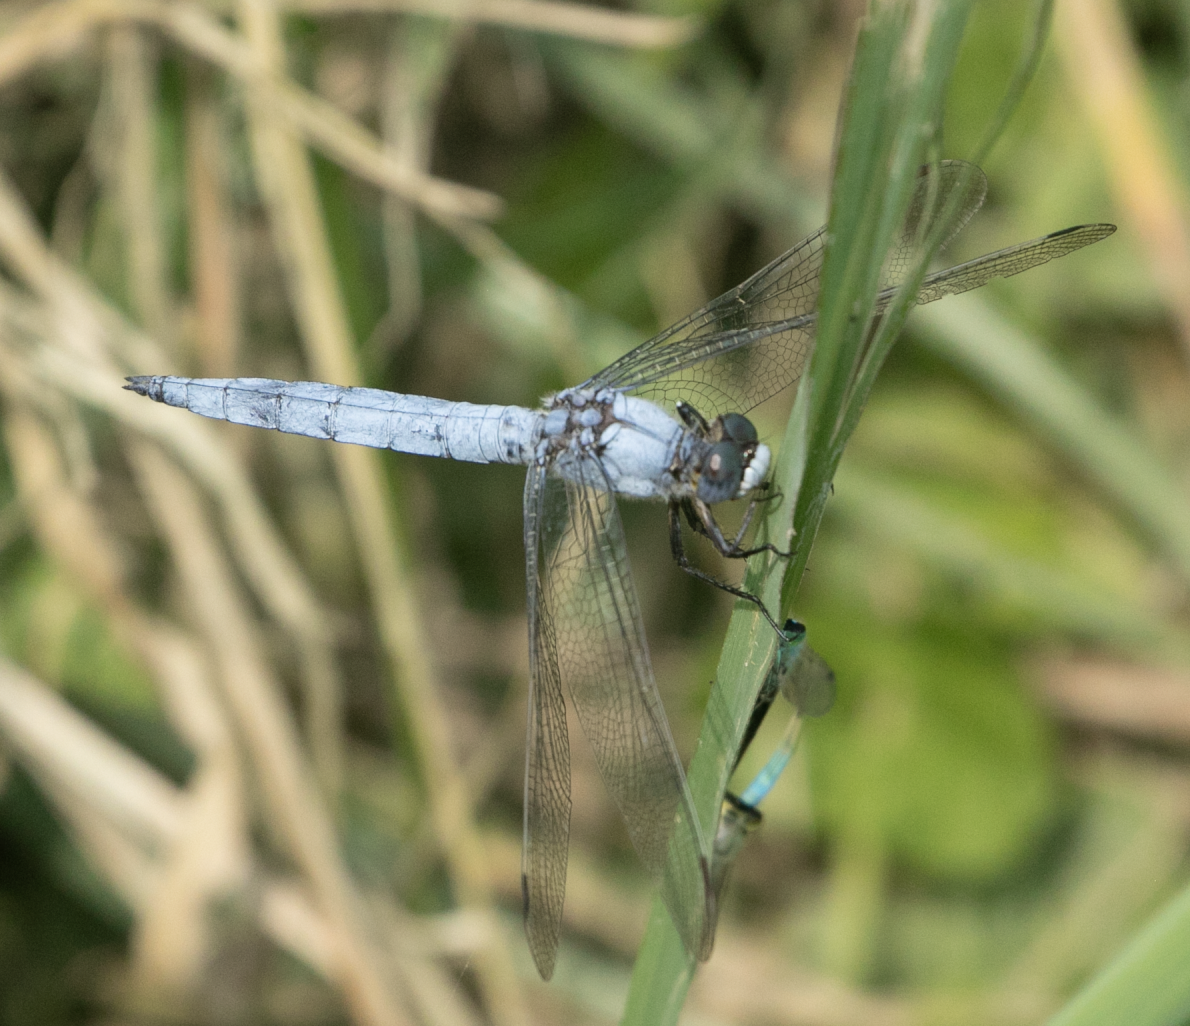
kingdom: Animalia
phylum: Arthropoda
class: Insecta
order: Odonata
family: Libellulidae
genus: Orthetrum
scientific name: Orthetrum brunneum
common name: Southern skimmer
